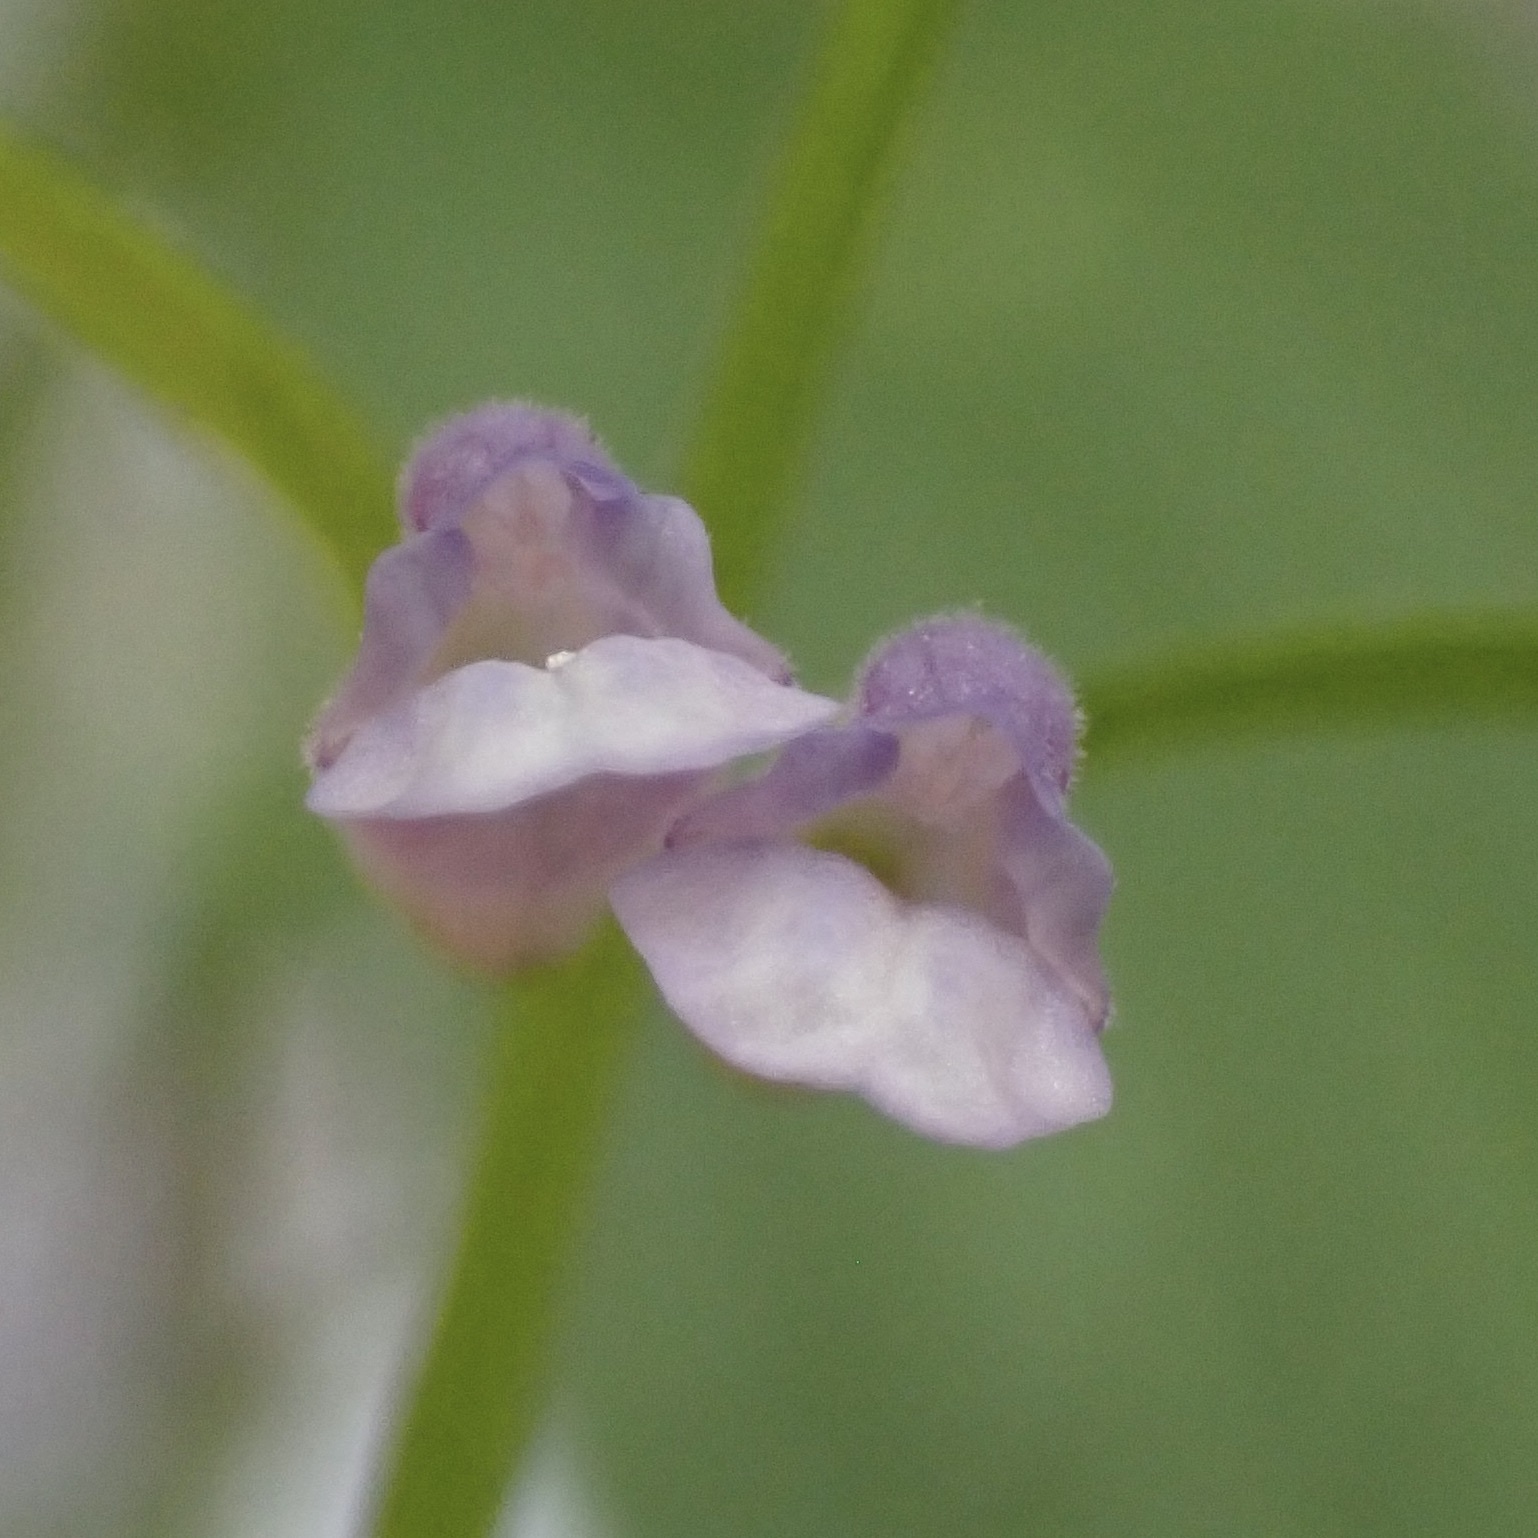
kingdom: Plantae
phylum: Tracheophyta
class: Magnoliopsida
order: Lamiales
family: Lamiaceae
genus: Scutellaria
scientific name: Scutellaria lateriflora
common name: Blue skullcap
